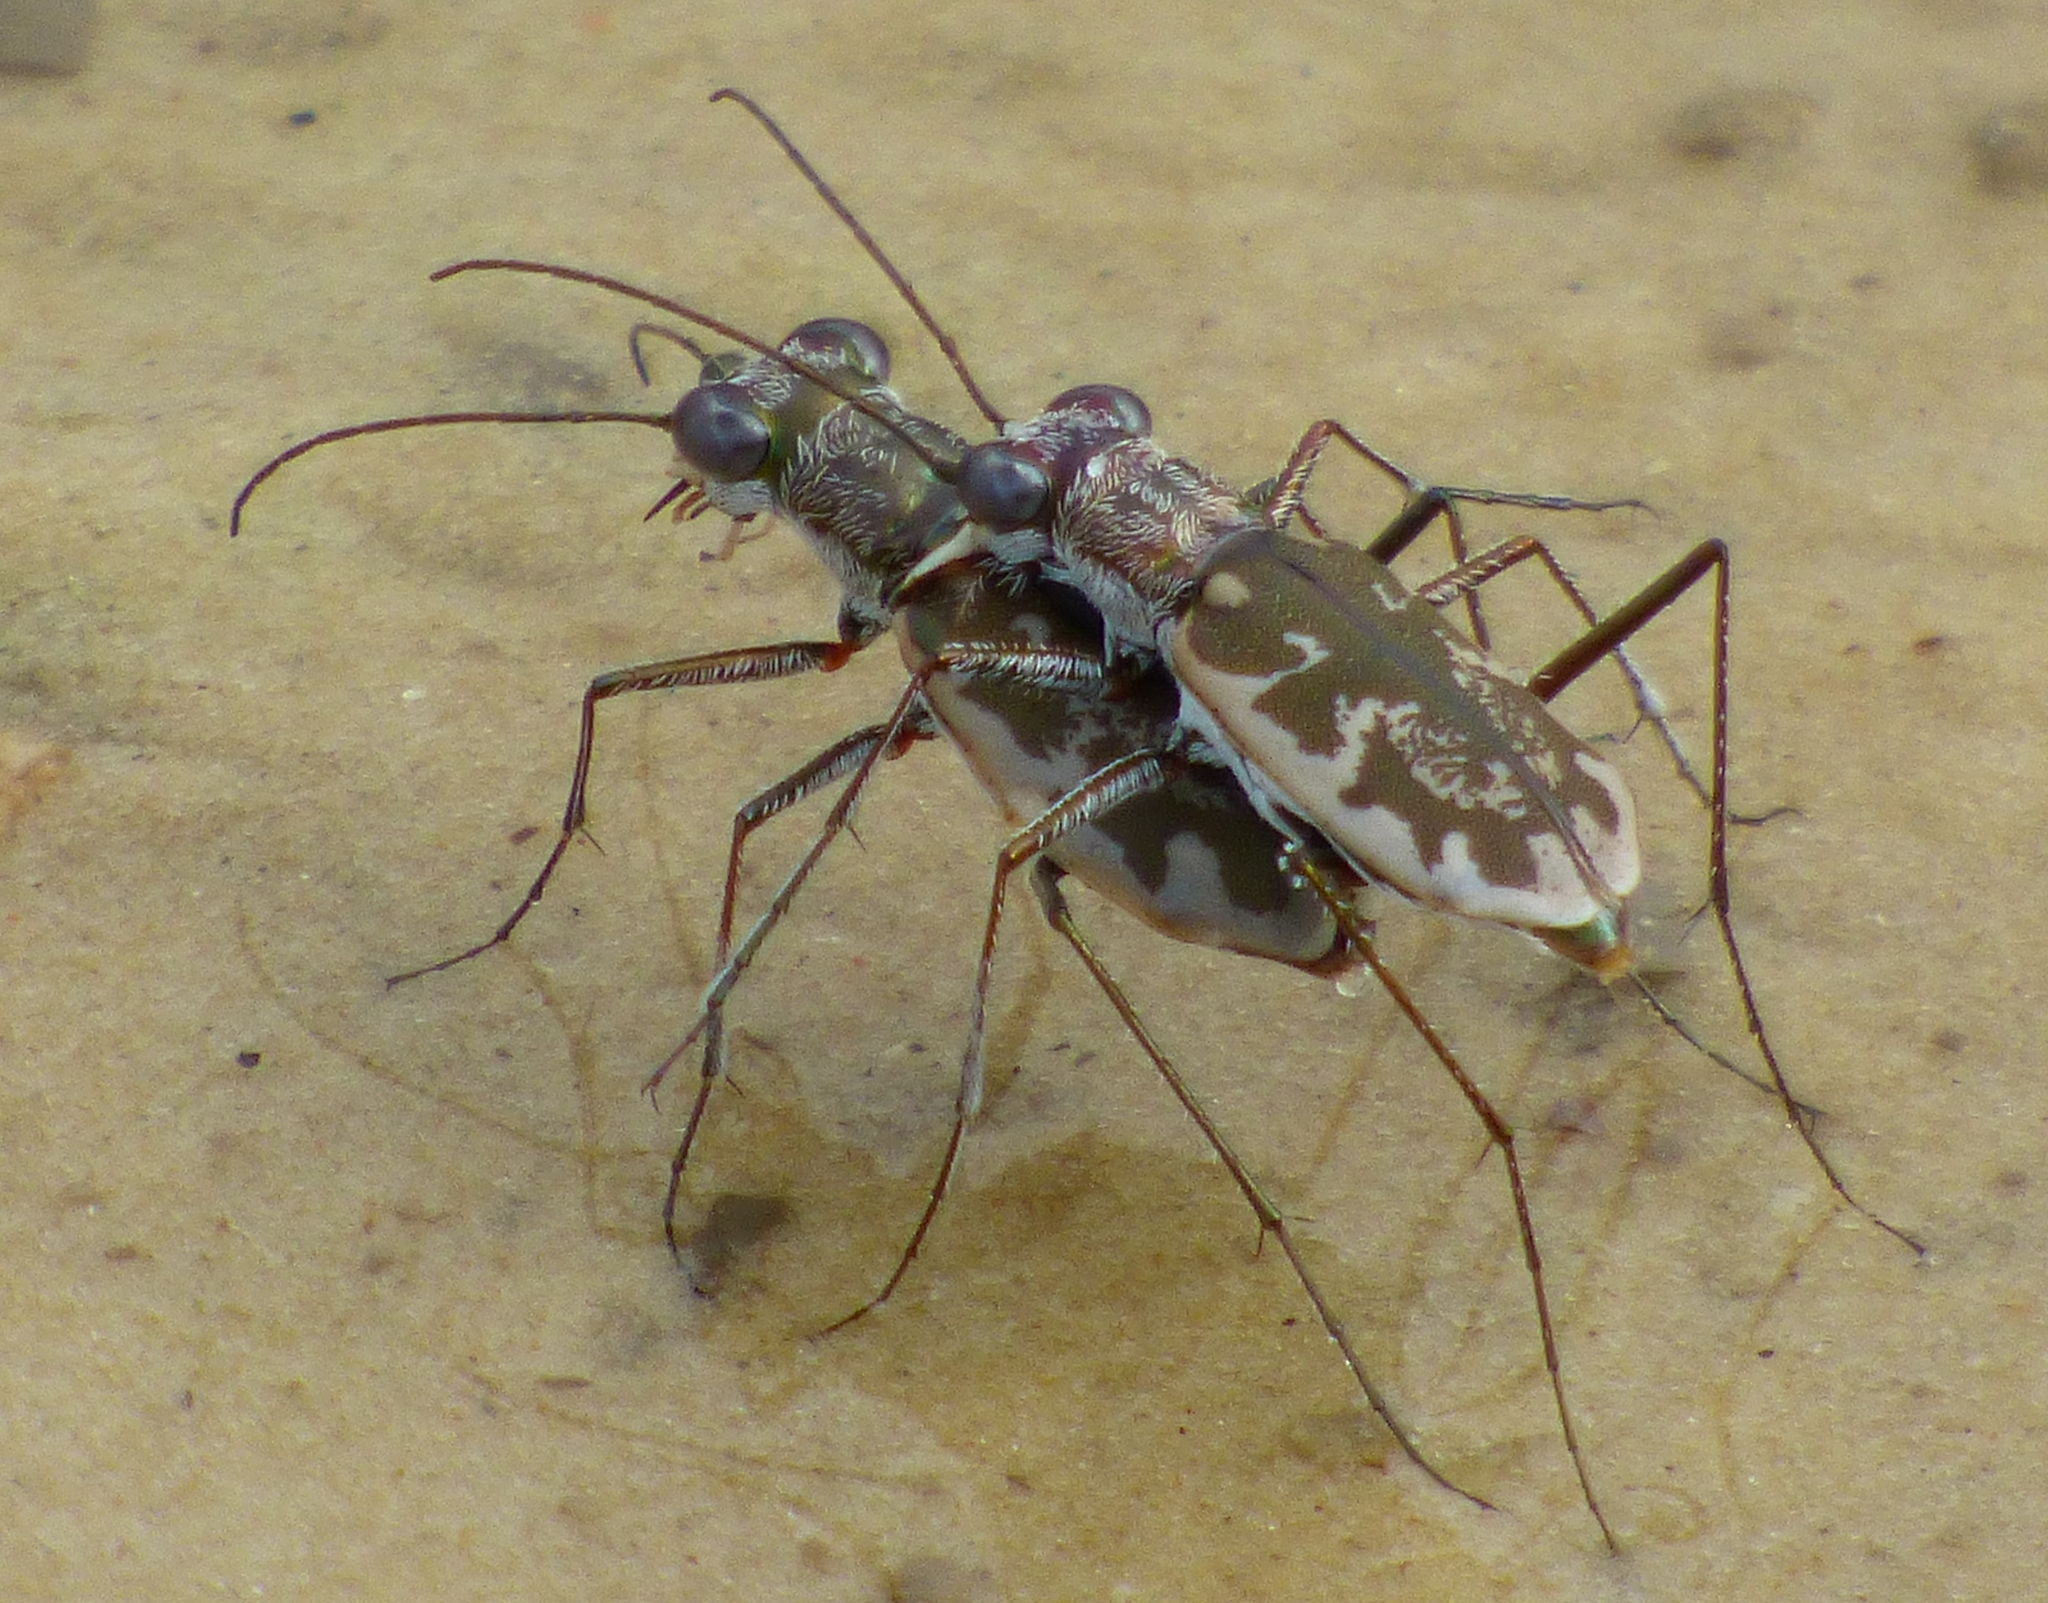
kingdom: Animalia
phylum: Arthropoda
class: Insecta
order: Coleoptera
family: Carabidae
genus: Ellipsoptera
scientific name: Ellipsoptera marginata
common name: Margined tiger beetle
